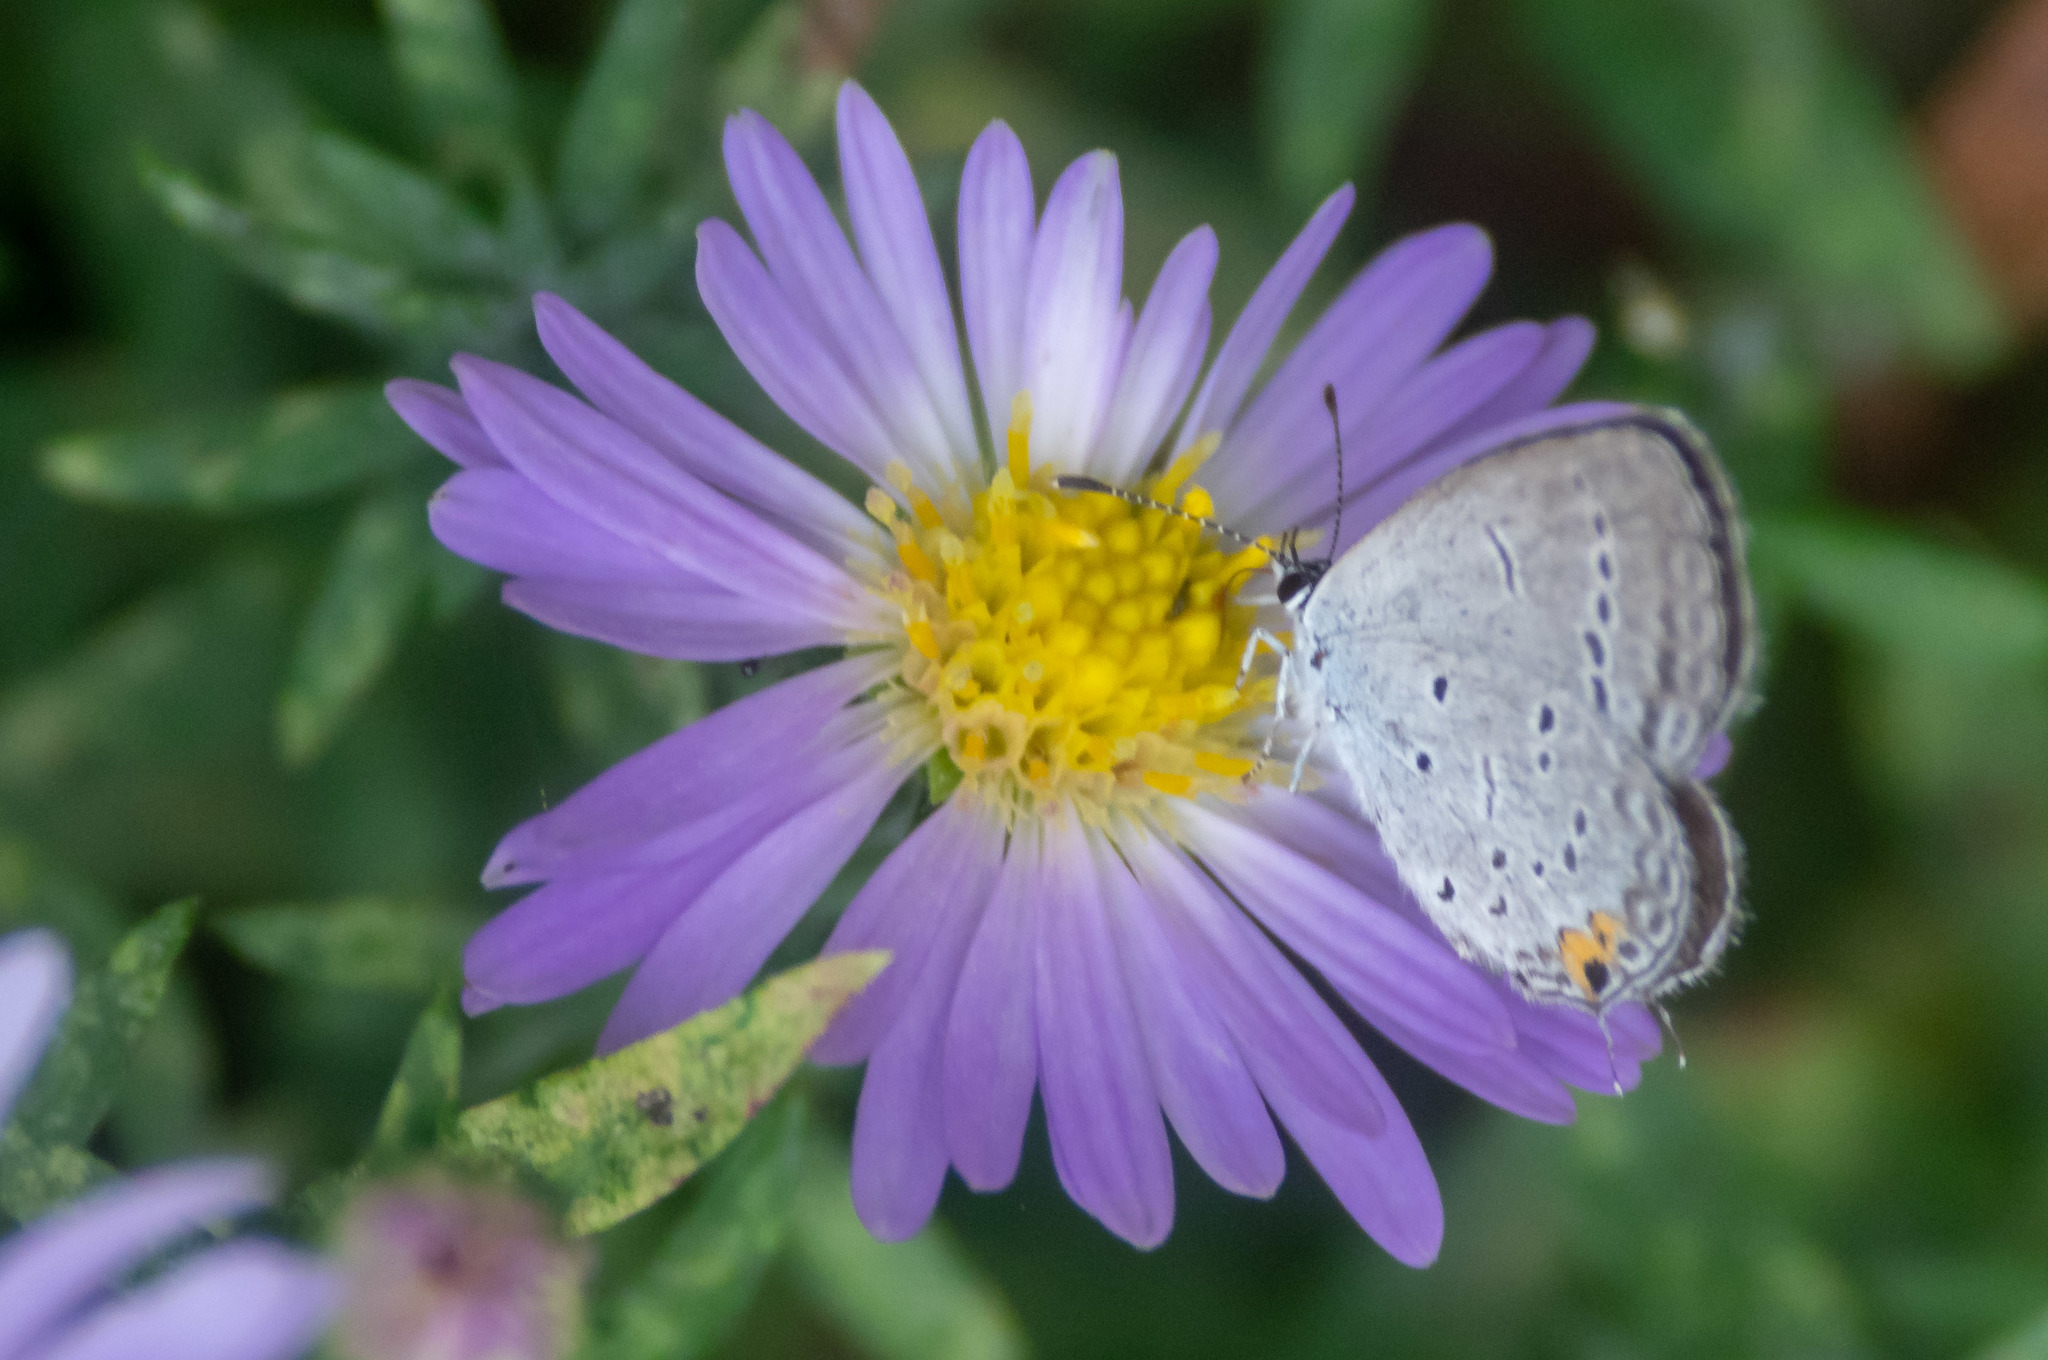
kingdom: Animalia
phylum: Arthropoda
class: Insecta
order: Lepidoptera
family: Lycaenidae
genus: Elkalyce
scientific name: Elkalyce comyntas
